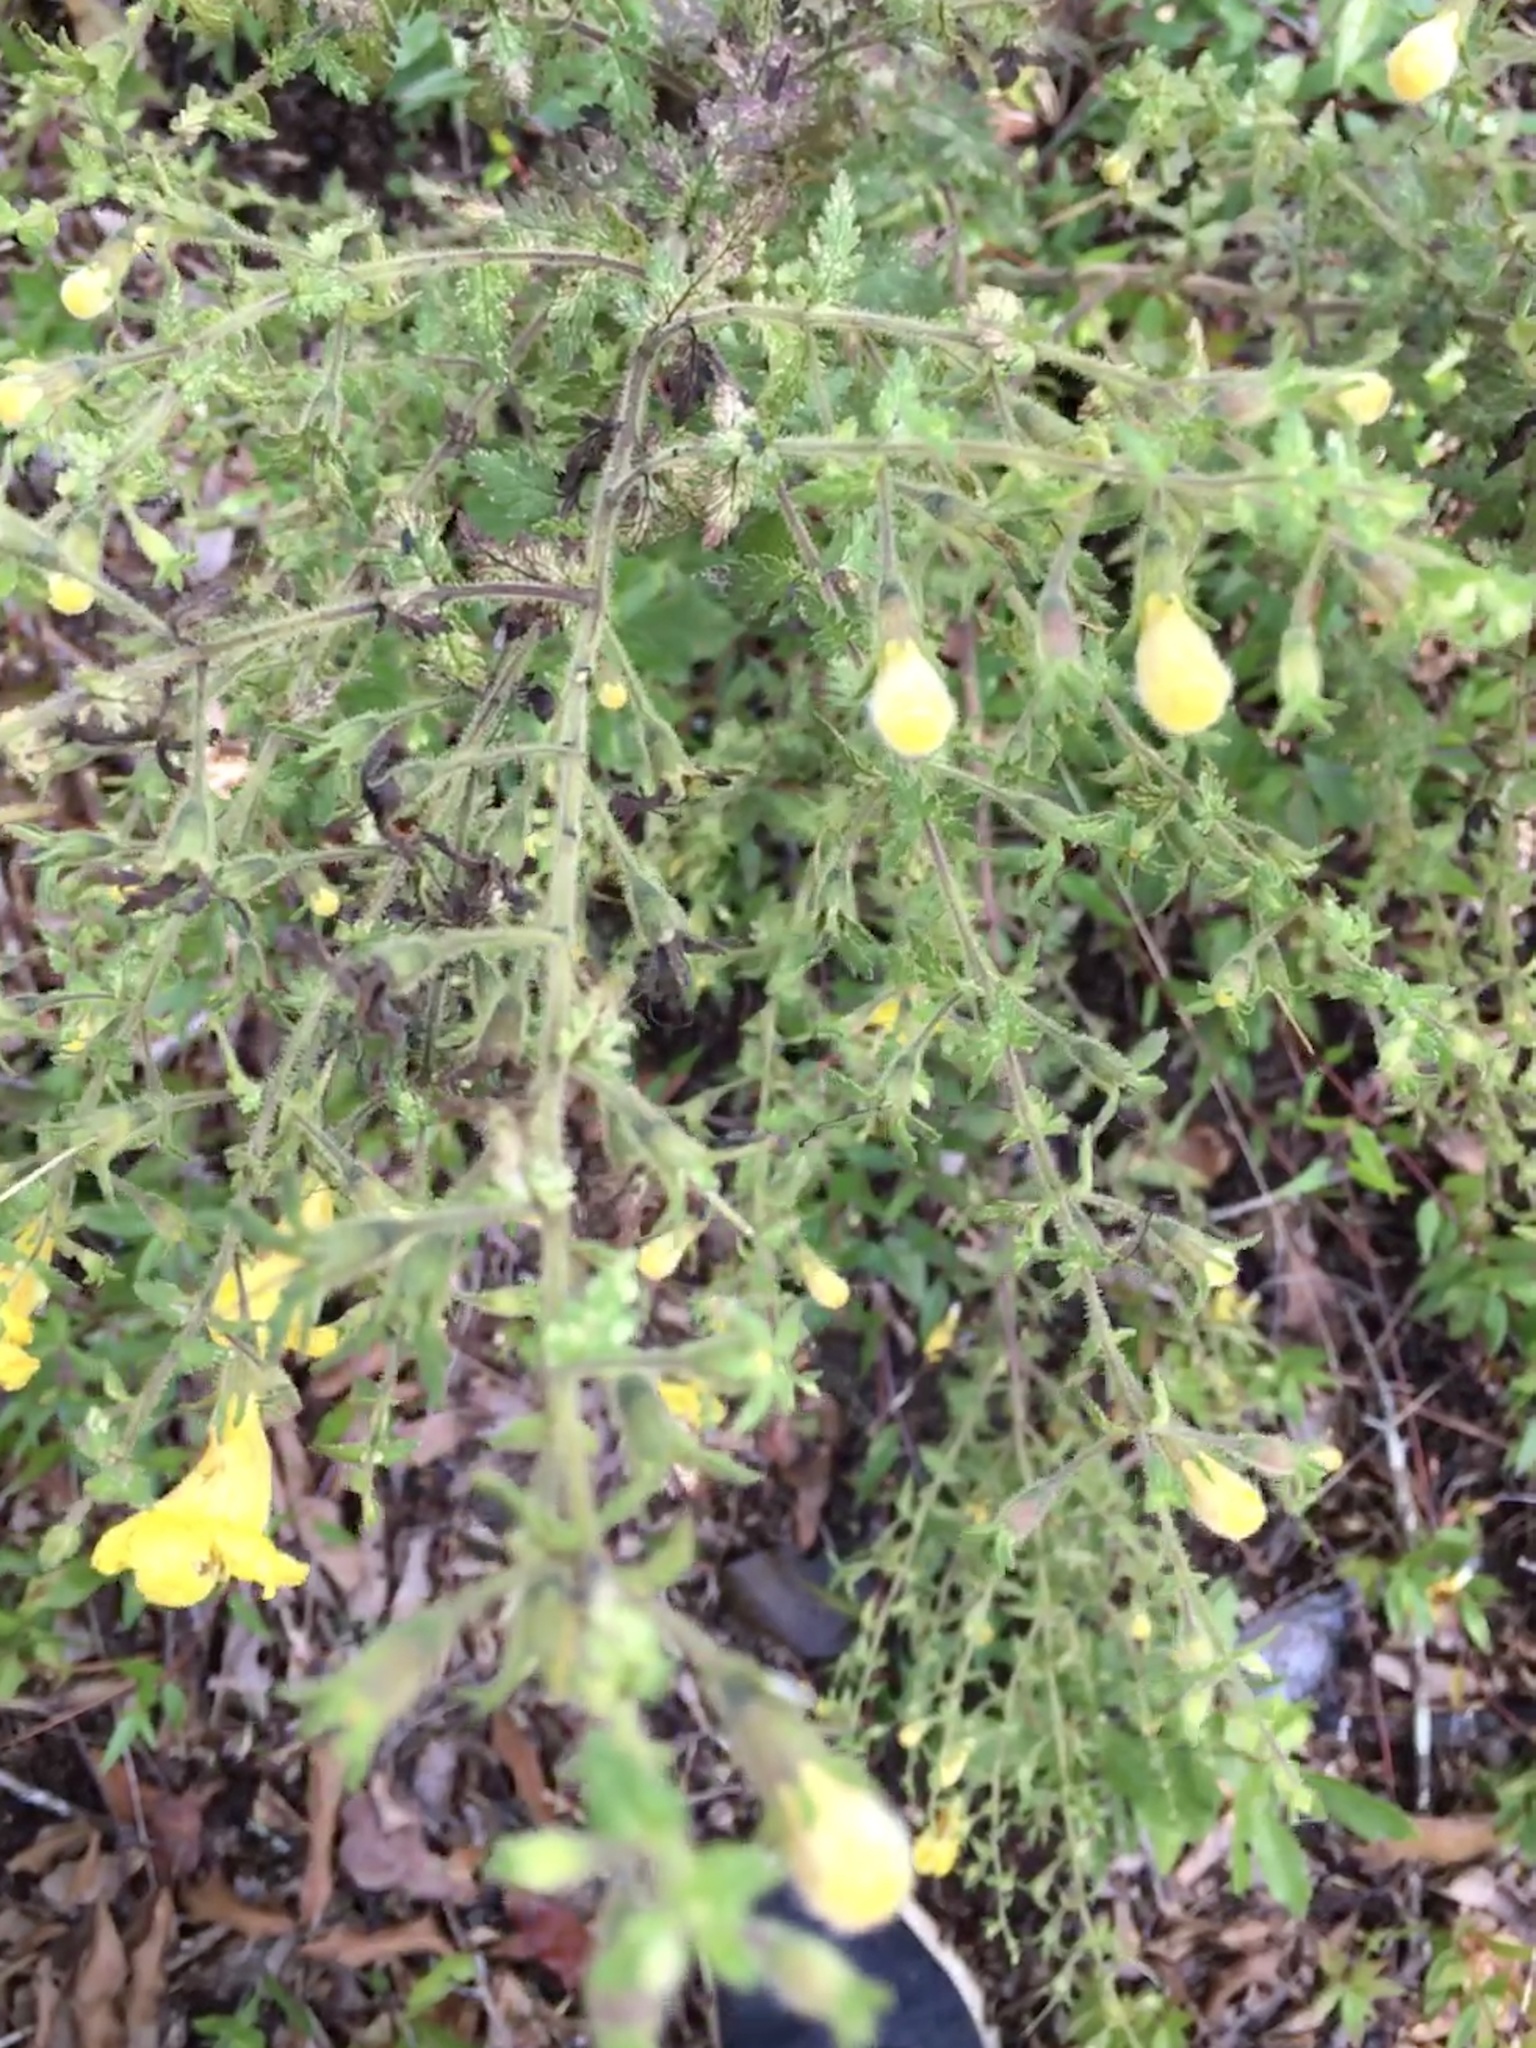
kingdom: Plantae
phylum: Tracheophyta
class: Magnoliopsida
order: Lamiales
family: Orobanchaceae
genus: Aureolaria
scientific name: Aureolaria pectinata
